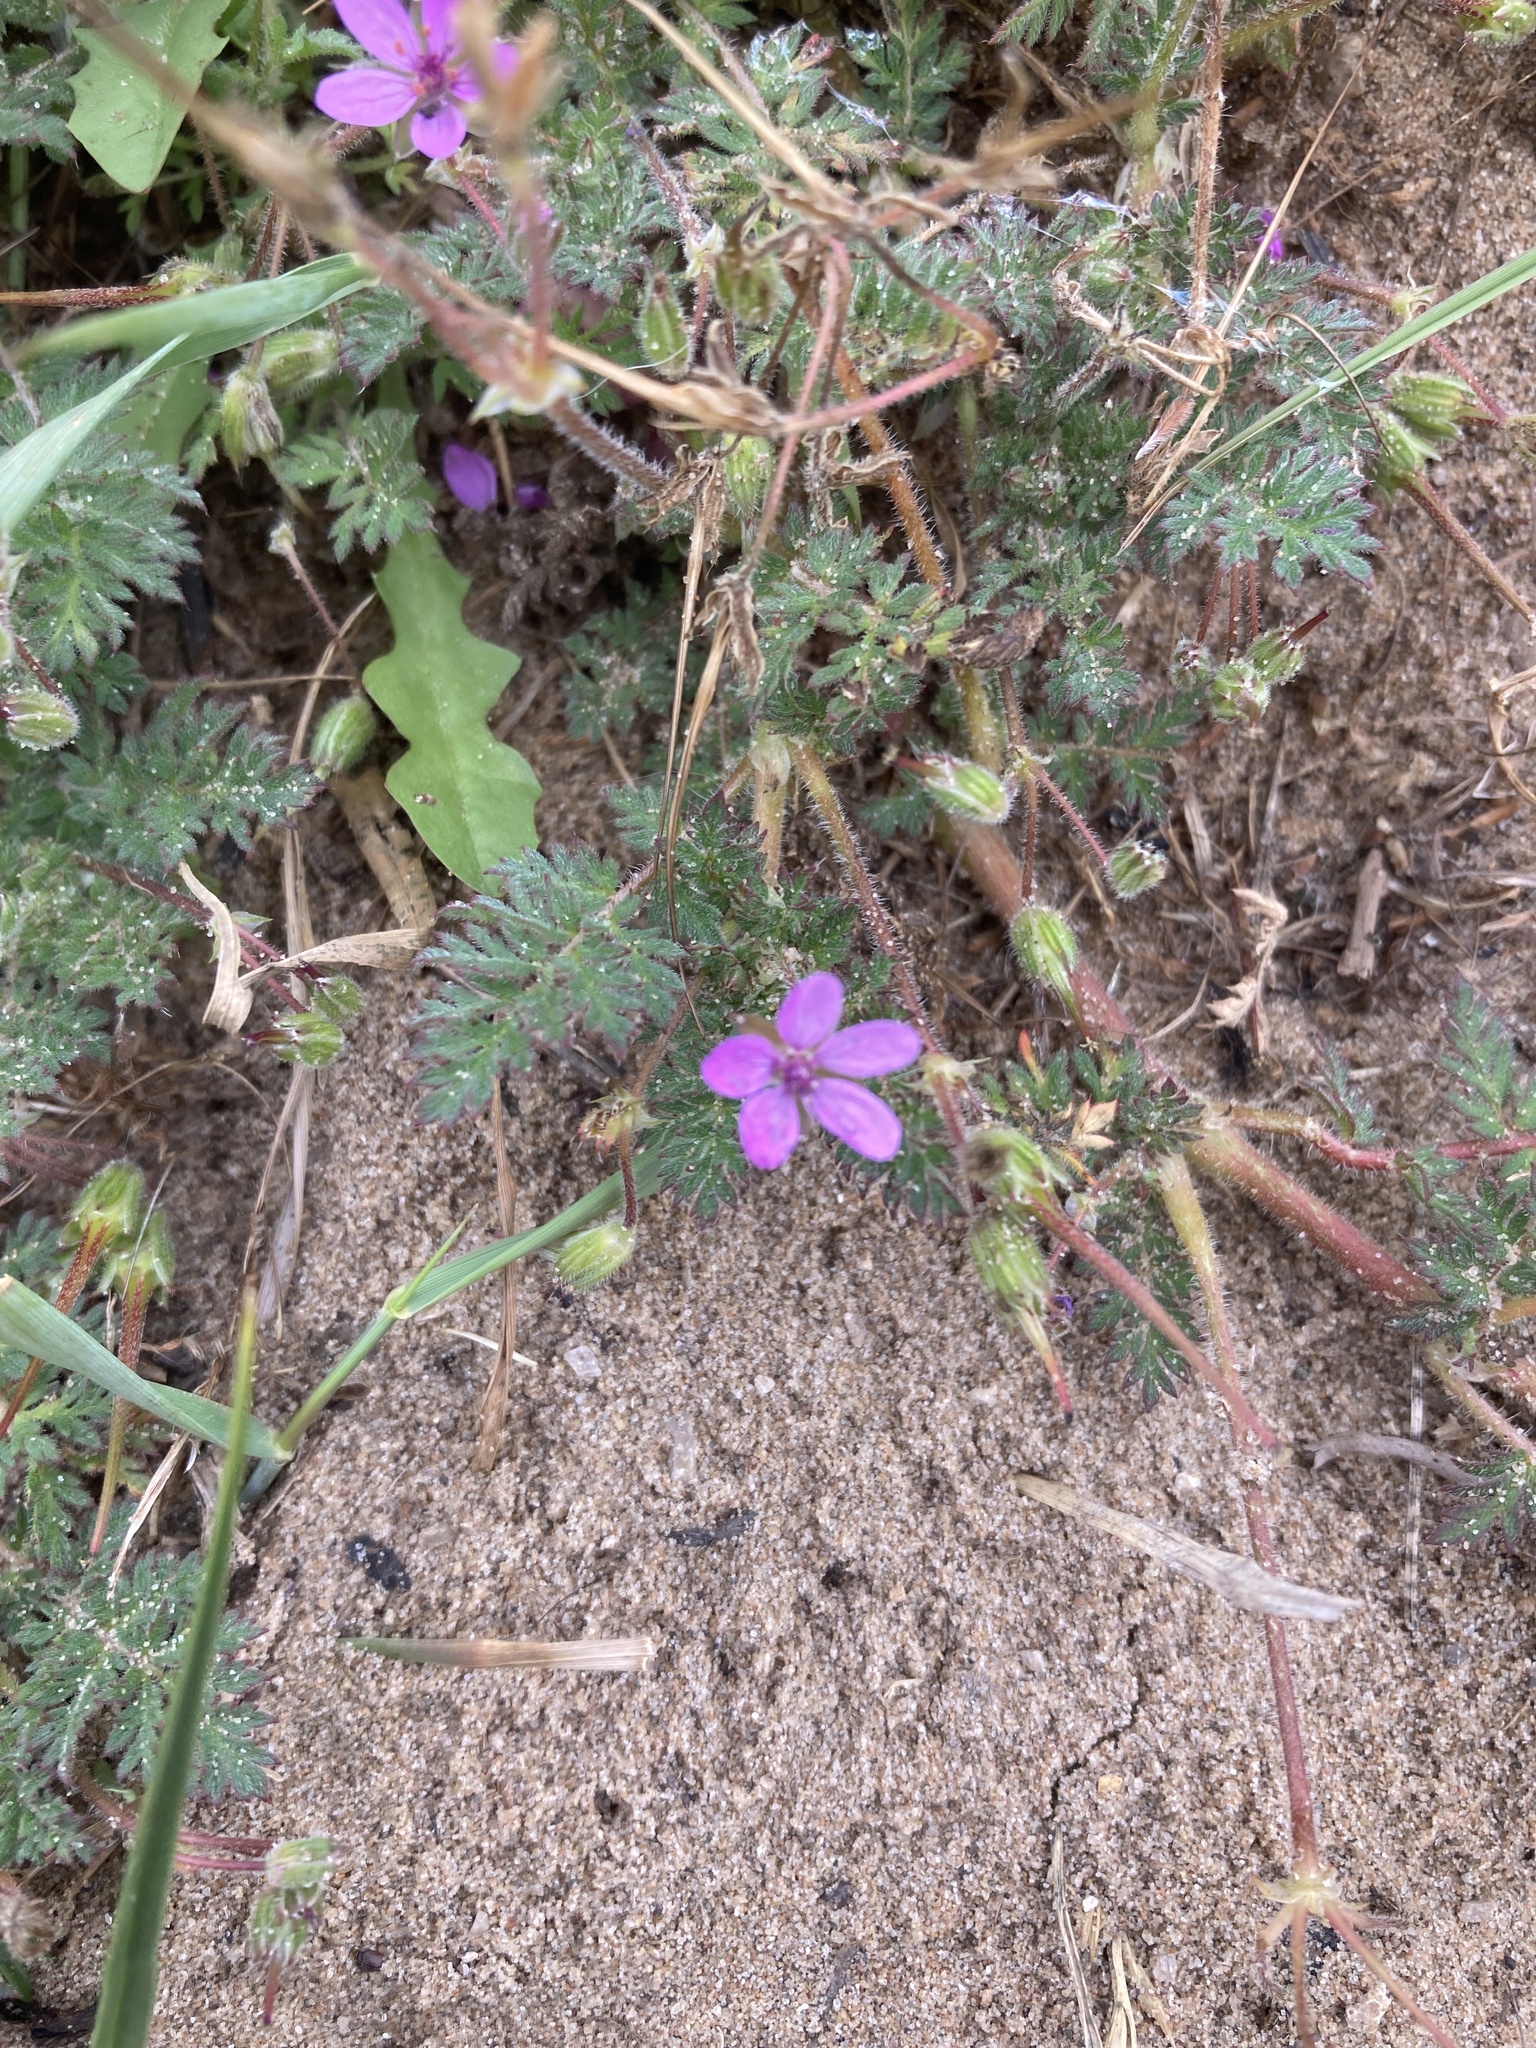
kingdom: Plantae
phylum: Tracheophyta
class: Magnoliopsida
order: Geraniales
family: Geraniaceae
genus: Erodium
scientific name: Erodium cicutarium
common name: Common stork's-bill
